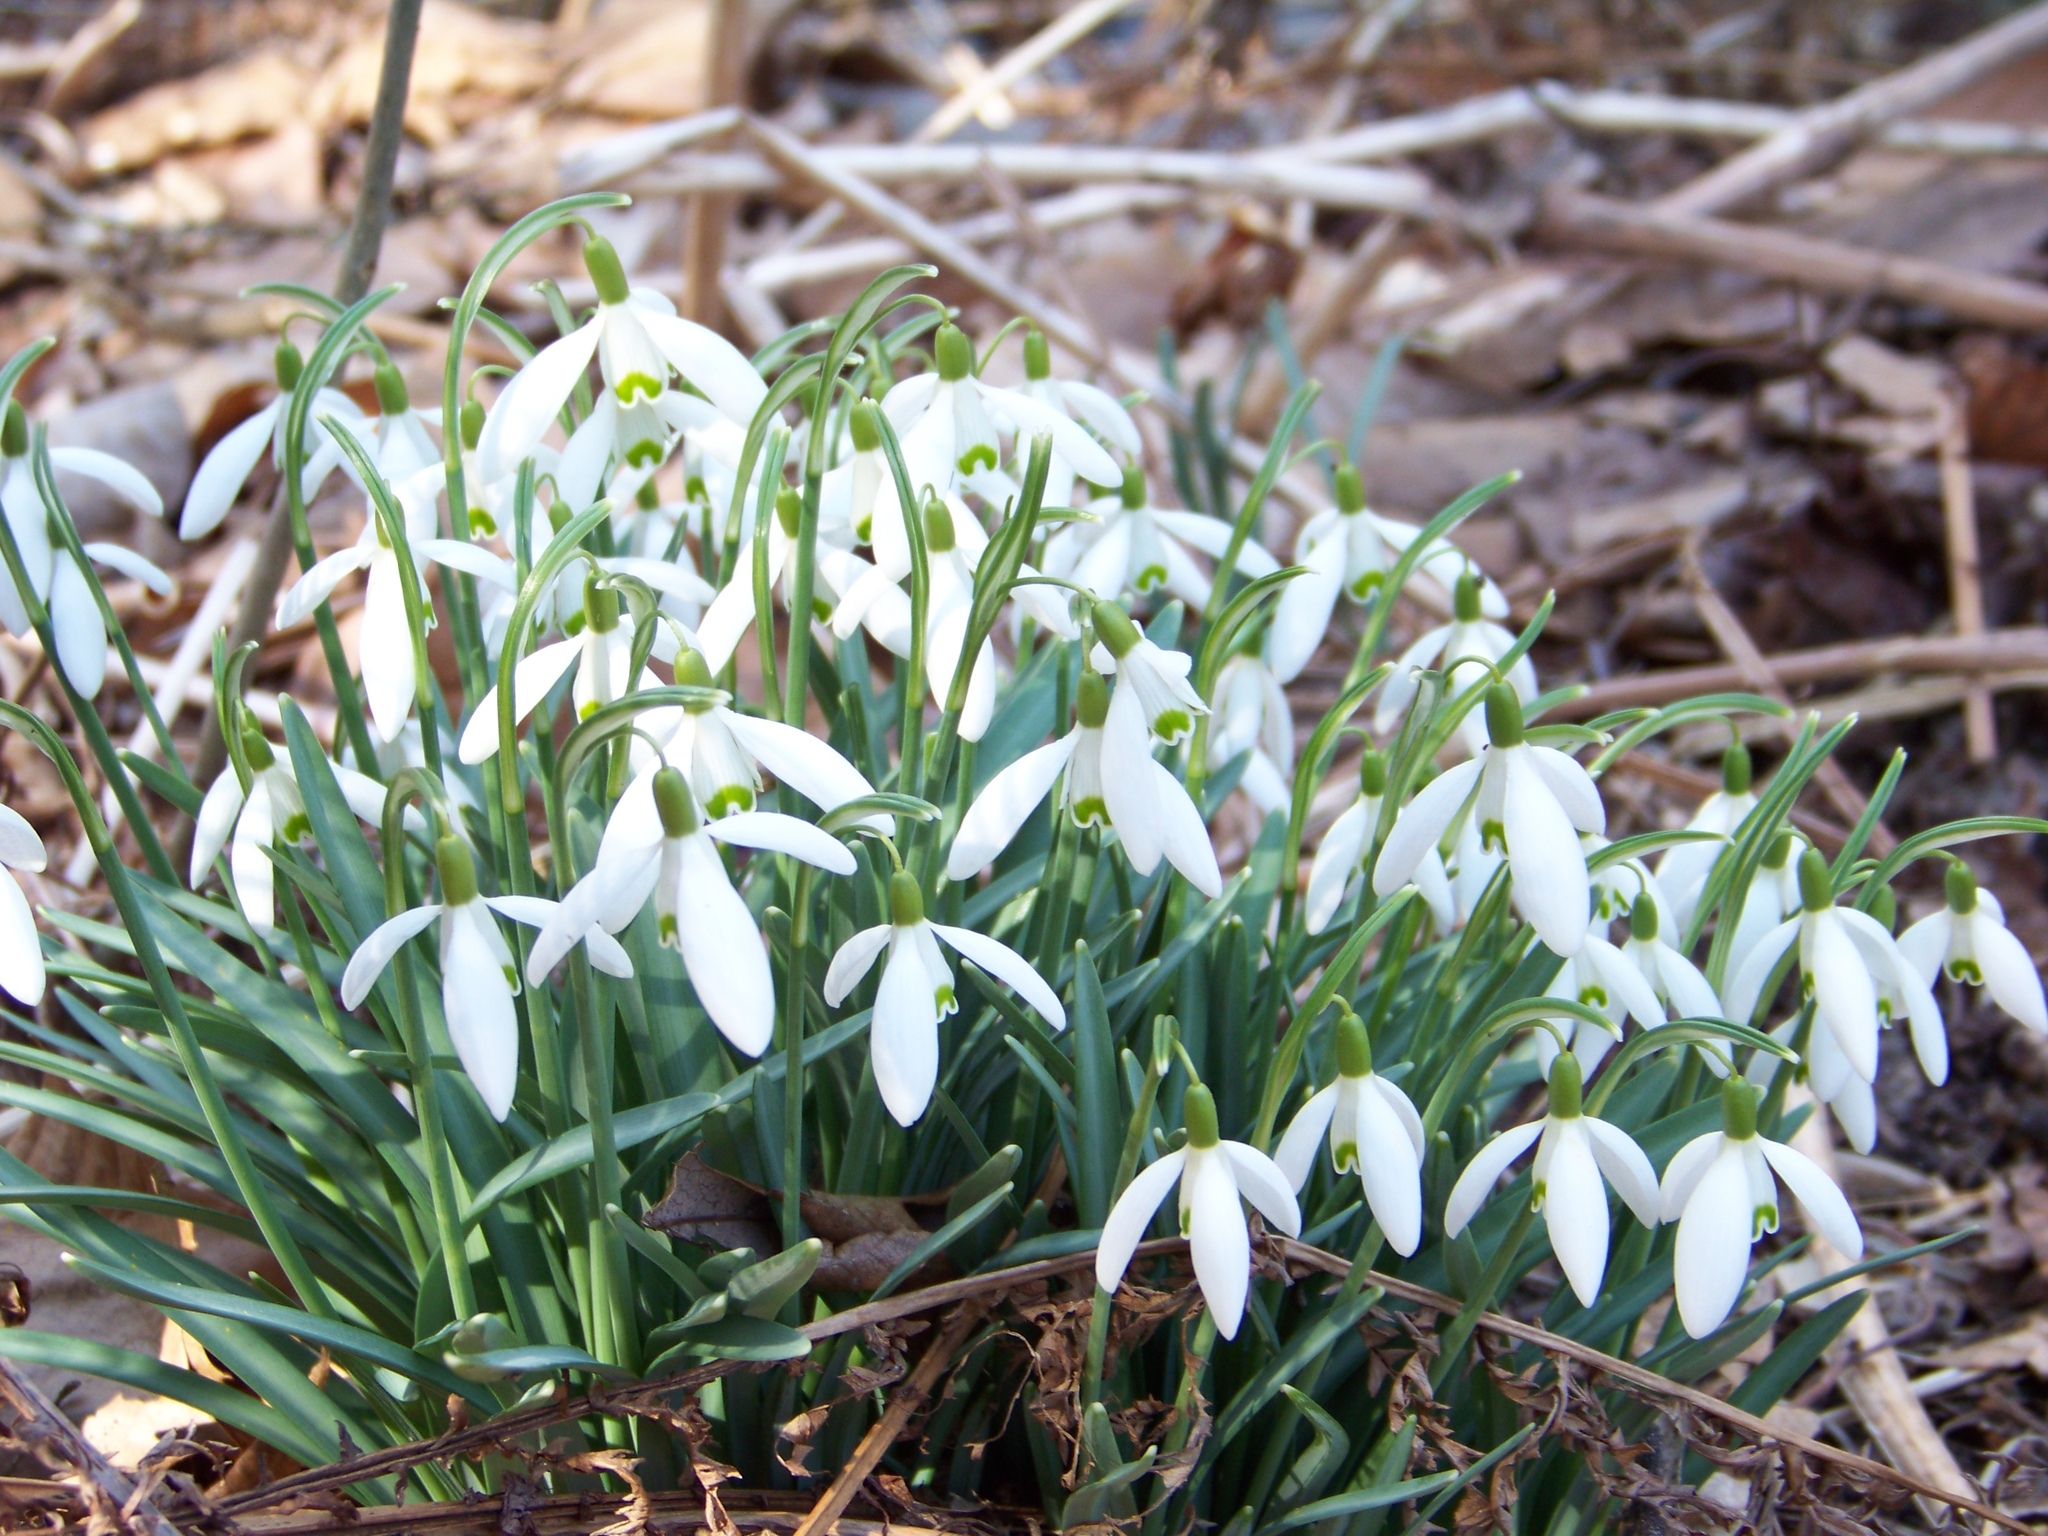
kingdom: Plantae
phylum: Tracheophyta
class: Liliopsida
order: Asparagales
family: Amaryllidaceae
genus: Galanthus
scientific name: Galanthus nivalis
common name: Snowdrop
